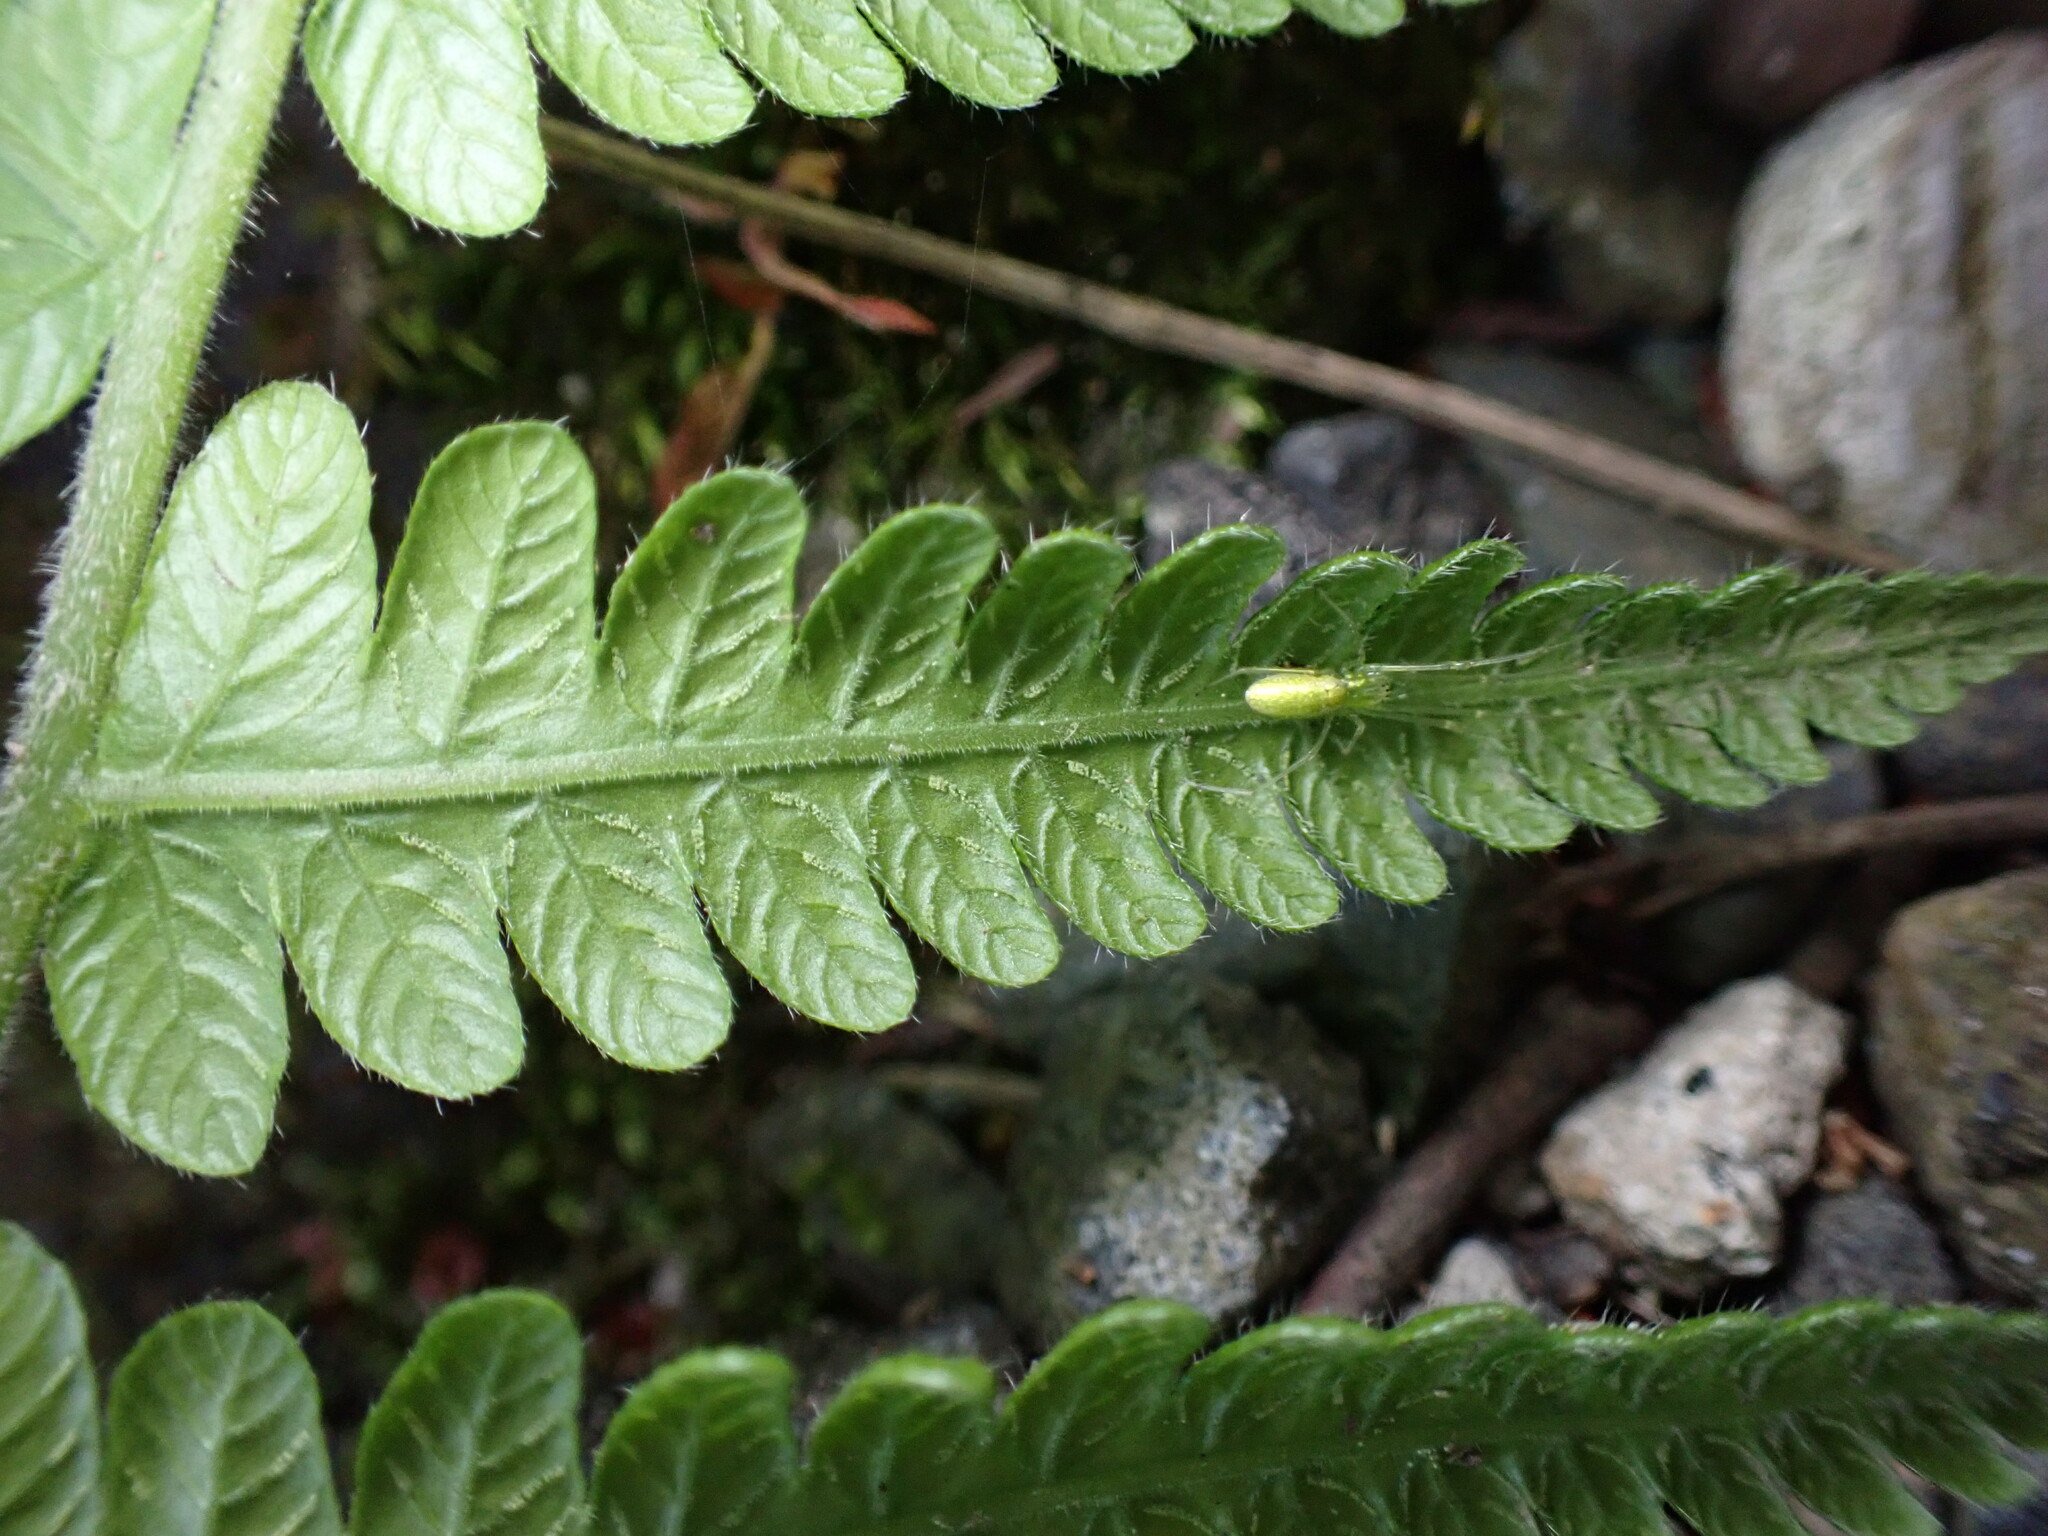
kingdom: Plantae
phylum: Tracheophyta
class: Polypodiopsida
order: Polypodiales
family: Thelypteridaceae
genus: Leptogramma
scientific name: Leptogramma mollissima
